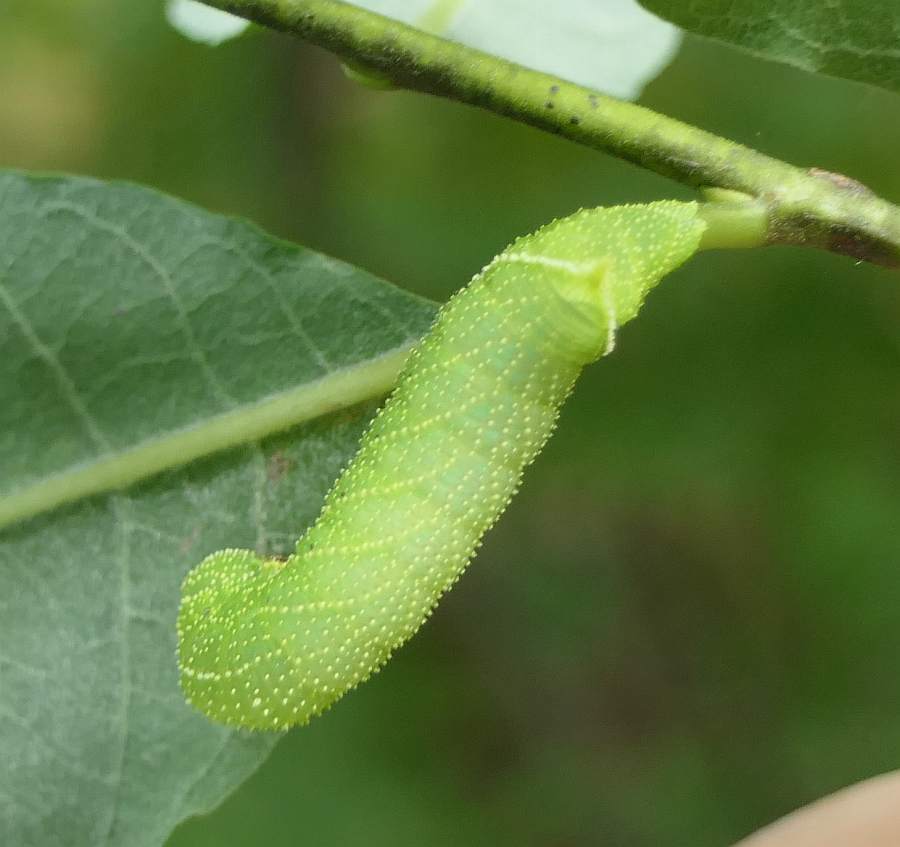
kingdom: Animalia
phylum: Arthropoda
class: Insecta
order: Lepidoptera
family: Sphingidae
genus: Paonias
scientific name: Paonias excaecata
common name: Blind-eyed sphinx
